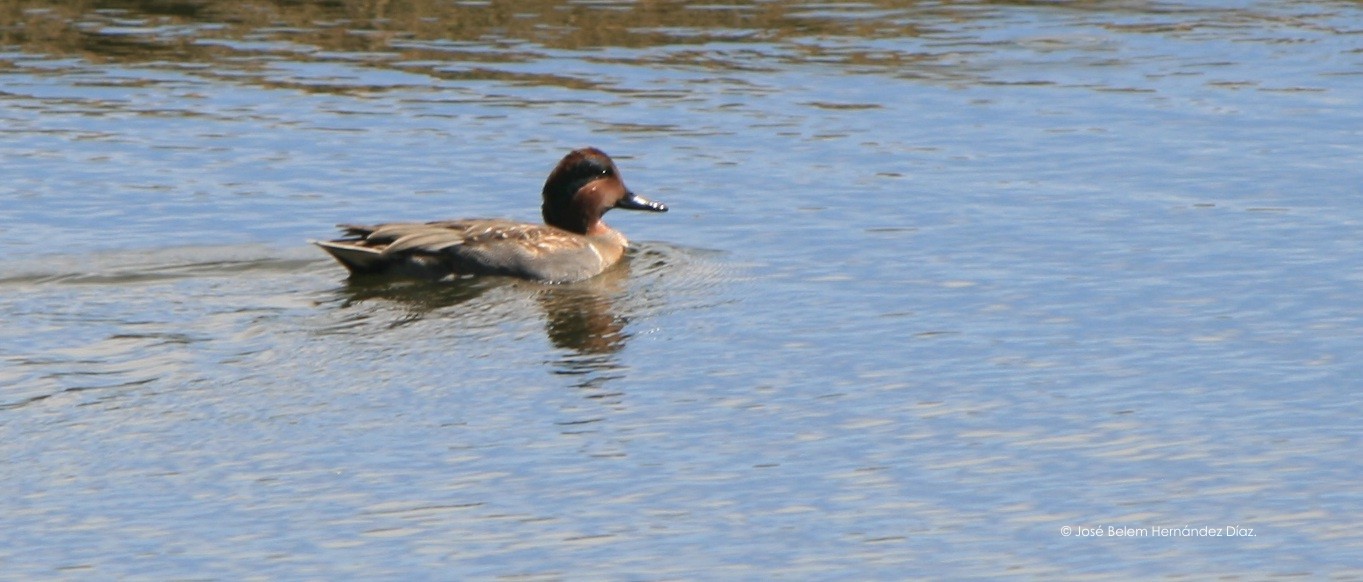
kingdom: Animalia
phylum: Chordata
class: Aves
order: Anseriformes
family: Anatidae
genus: Anas
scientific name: Anas crecca
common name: Eurasian teal
